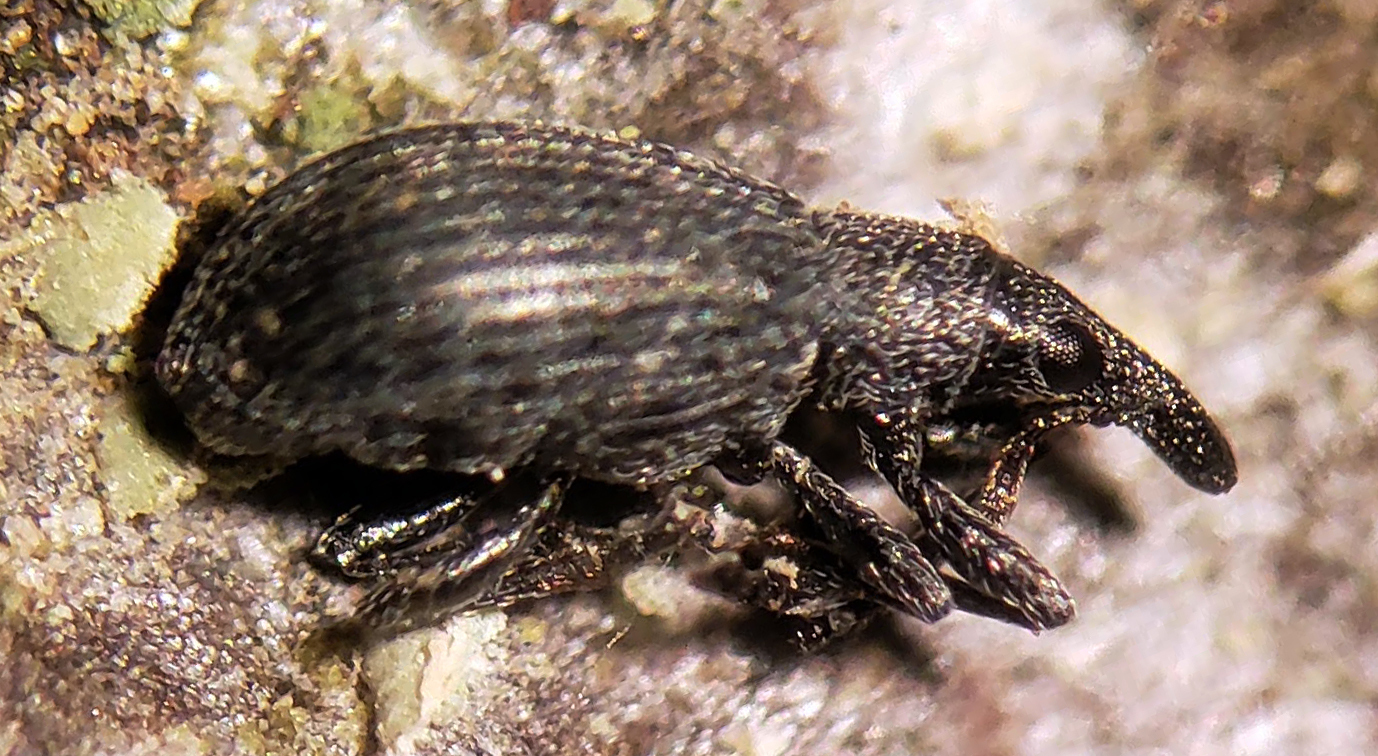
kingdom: Animalia
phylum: Arthropoda
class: Insecta
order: Coleoptera
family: Brentidae
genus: Perapion
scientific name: Perapion curtirostre
